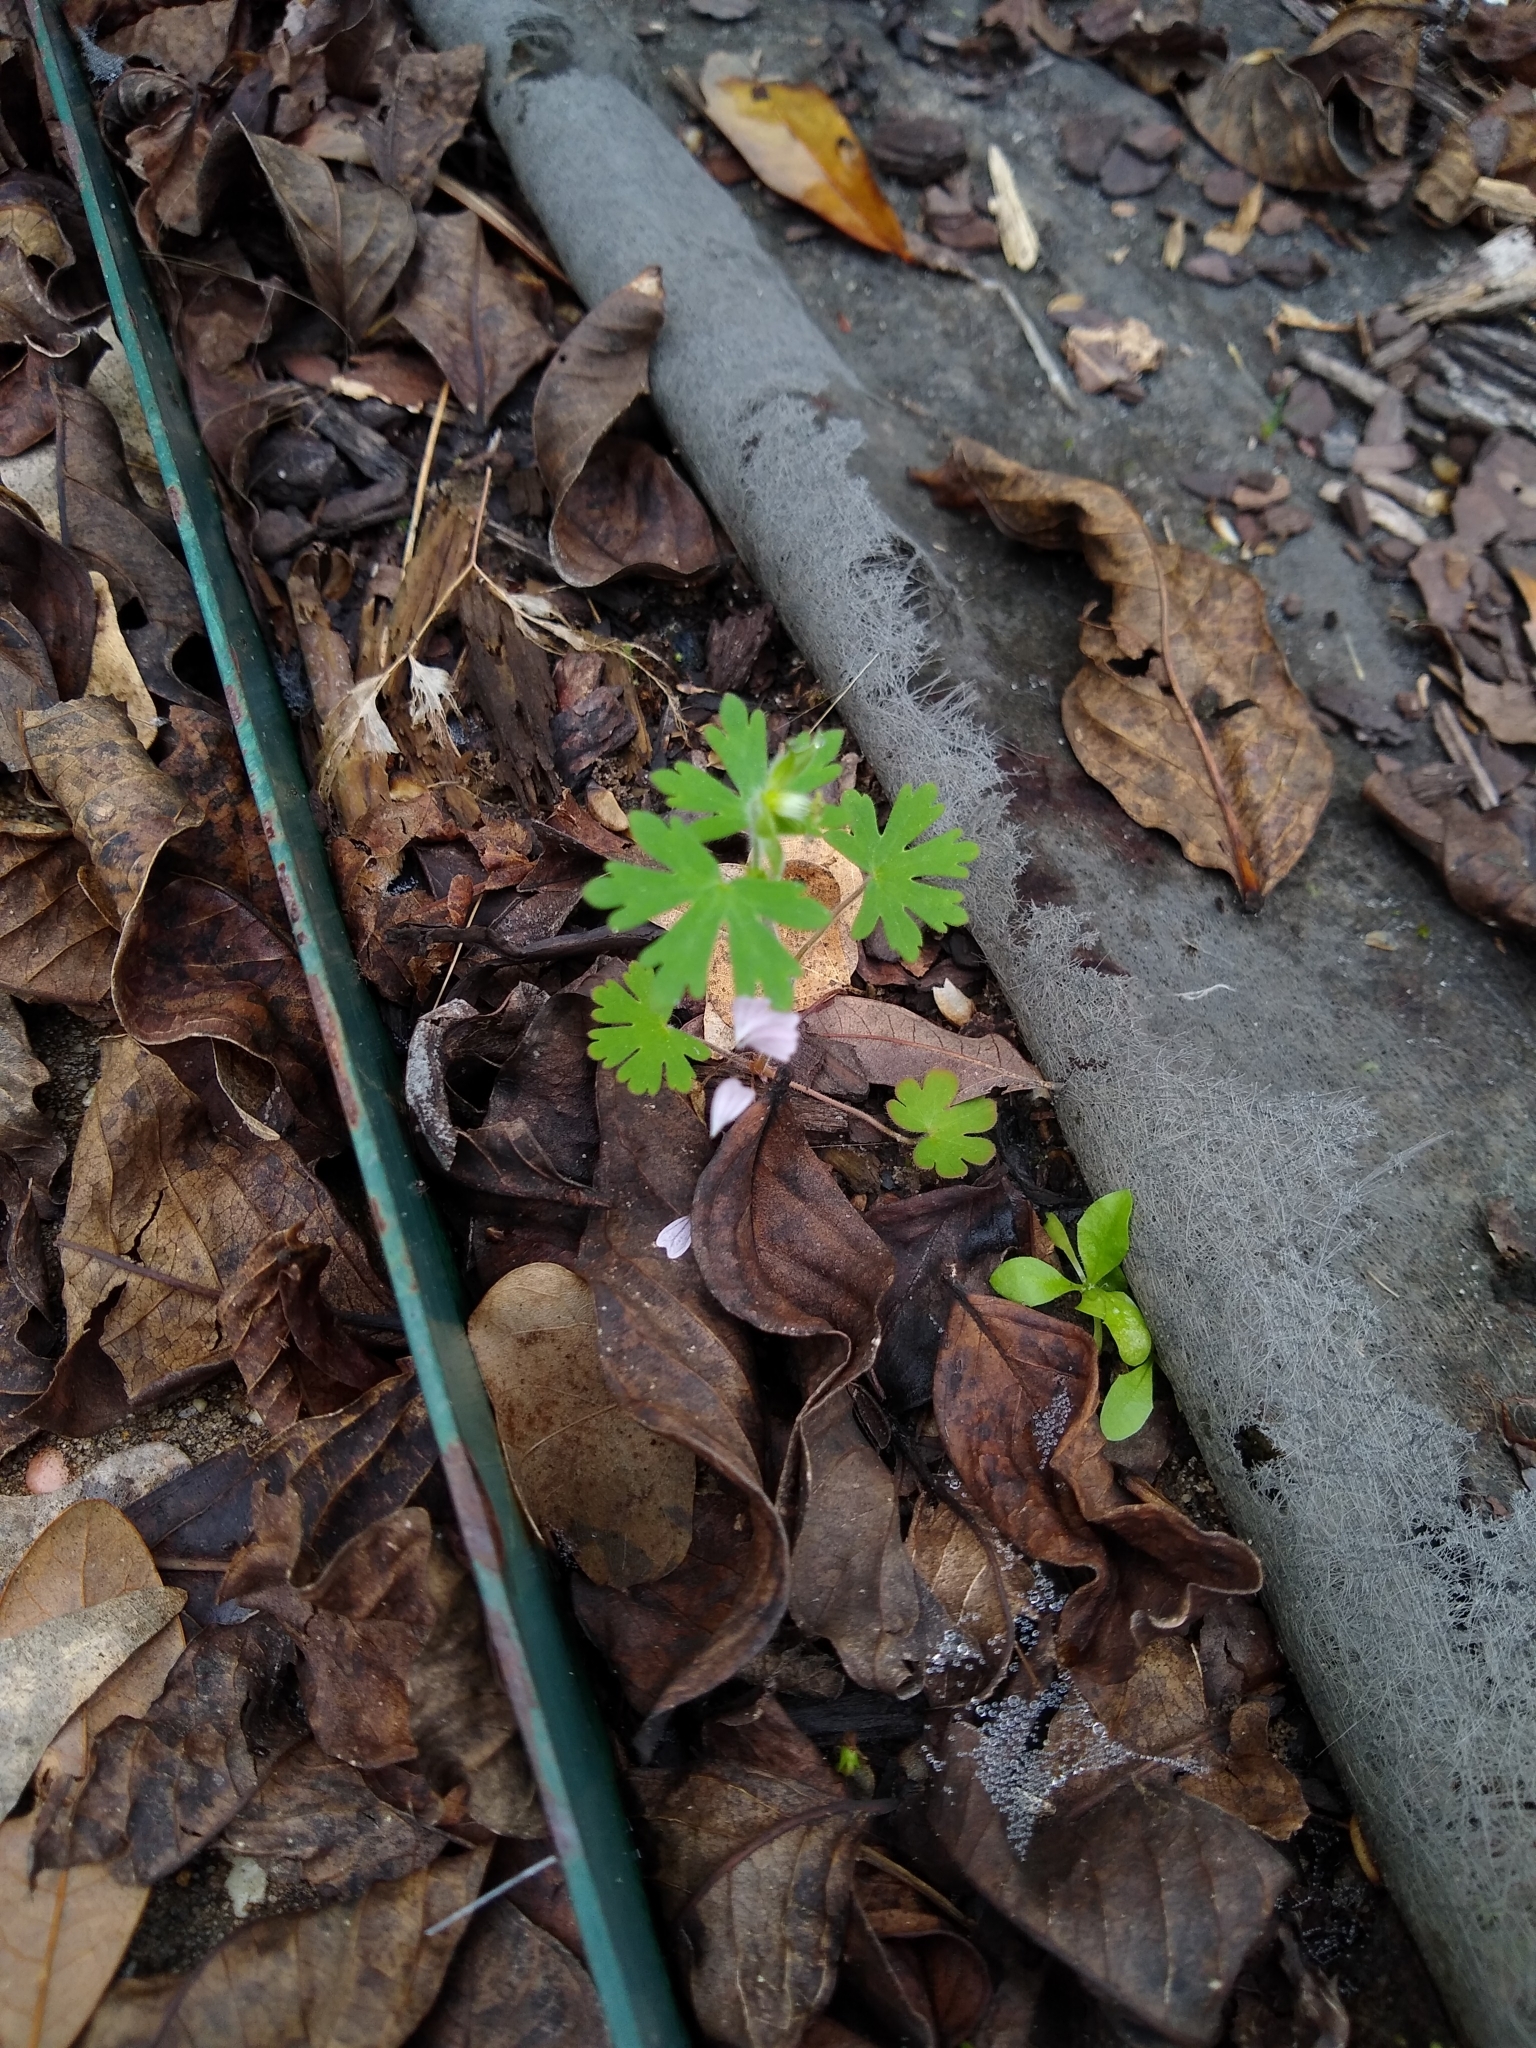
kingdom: Plantae
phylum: Tracheophyta
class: Magnoliopsida
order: Geraniales
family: Geraniaceae
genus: Geranium
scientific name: Geranium carolinianum
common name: Carolina crane's-bill
